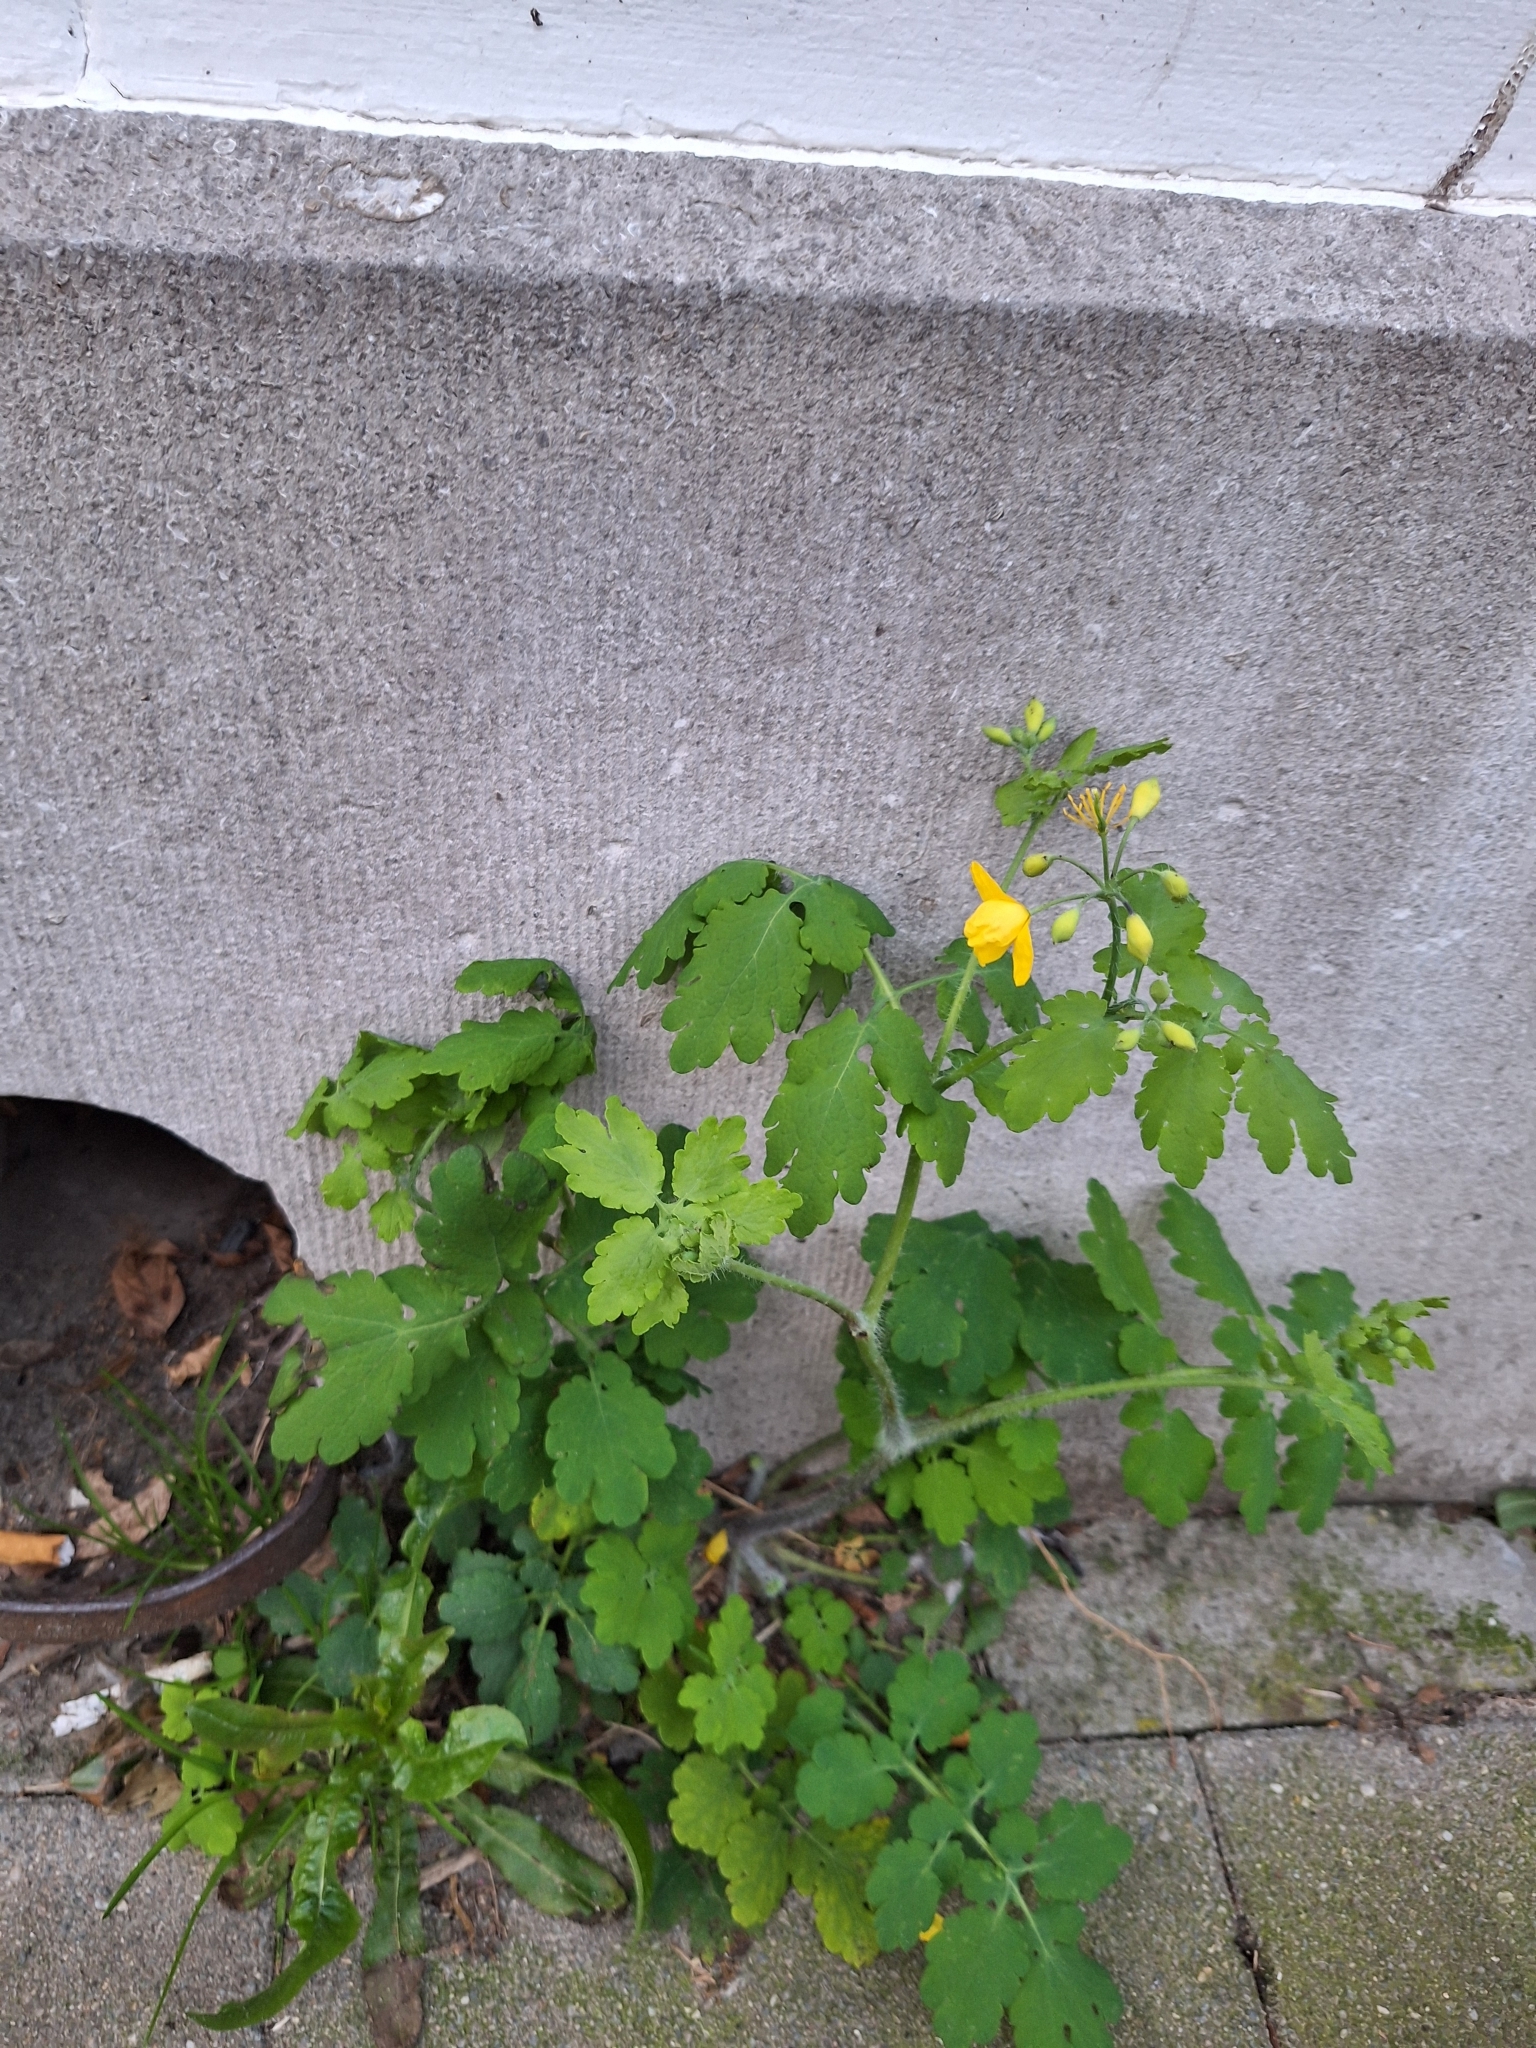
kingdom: Plantae
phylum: Tracheophyta
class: Magnoliopsida
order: Ranunculales
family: Papaveraceae
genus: Chelidonium
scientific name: Chelidonium majus
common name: Greater celandine
